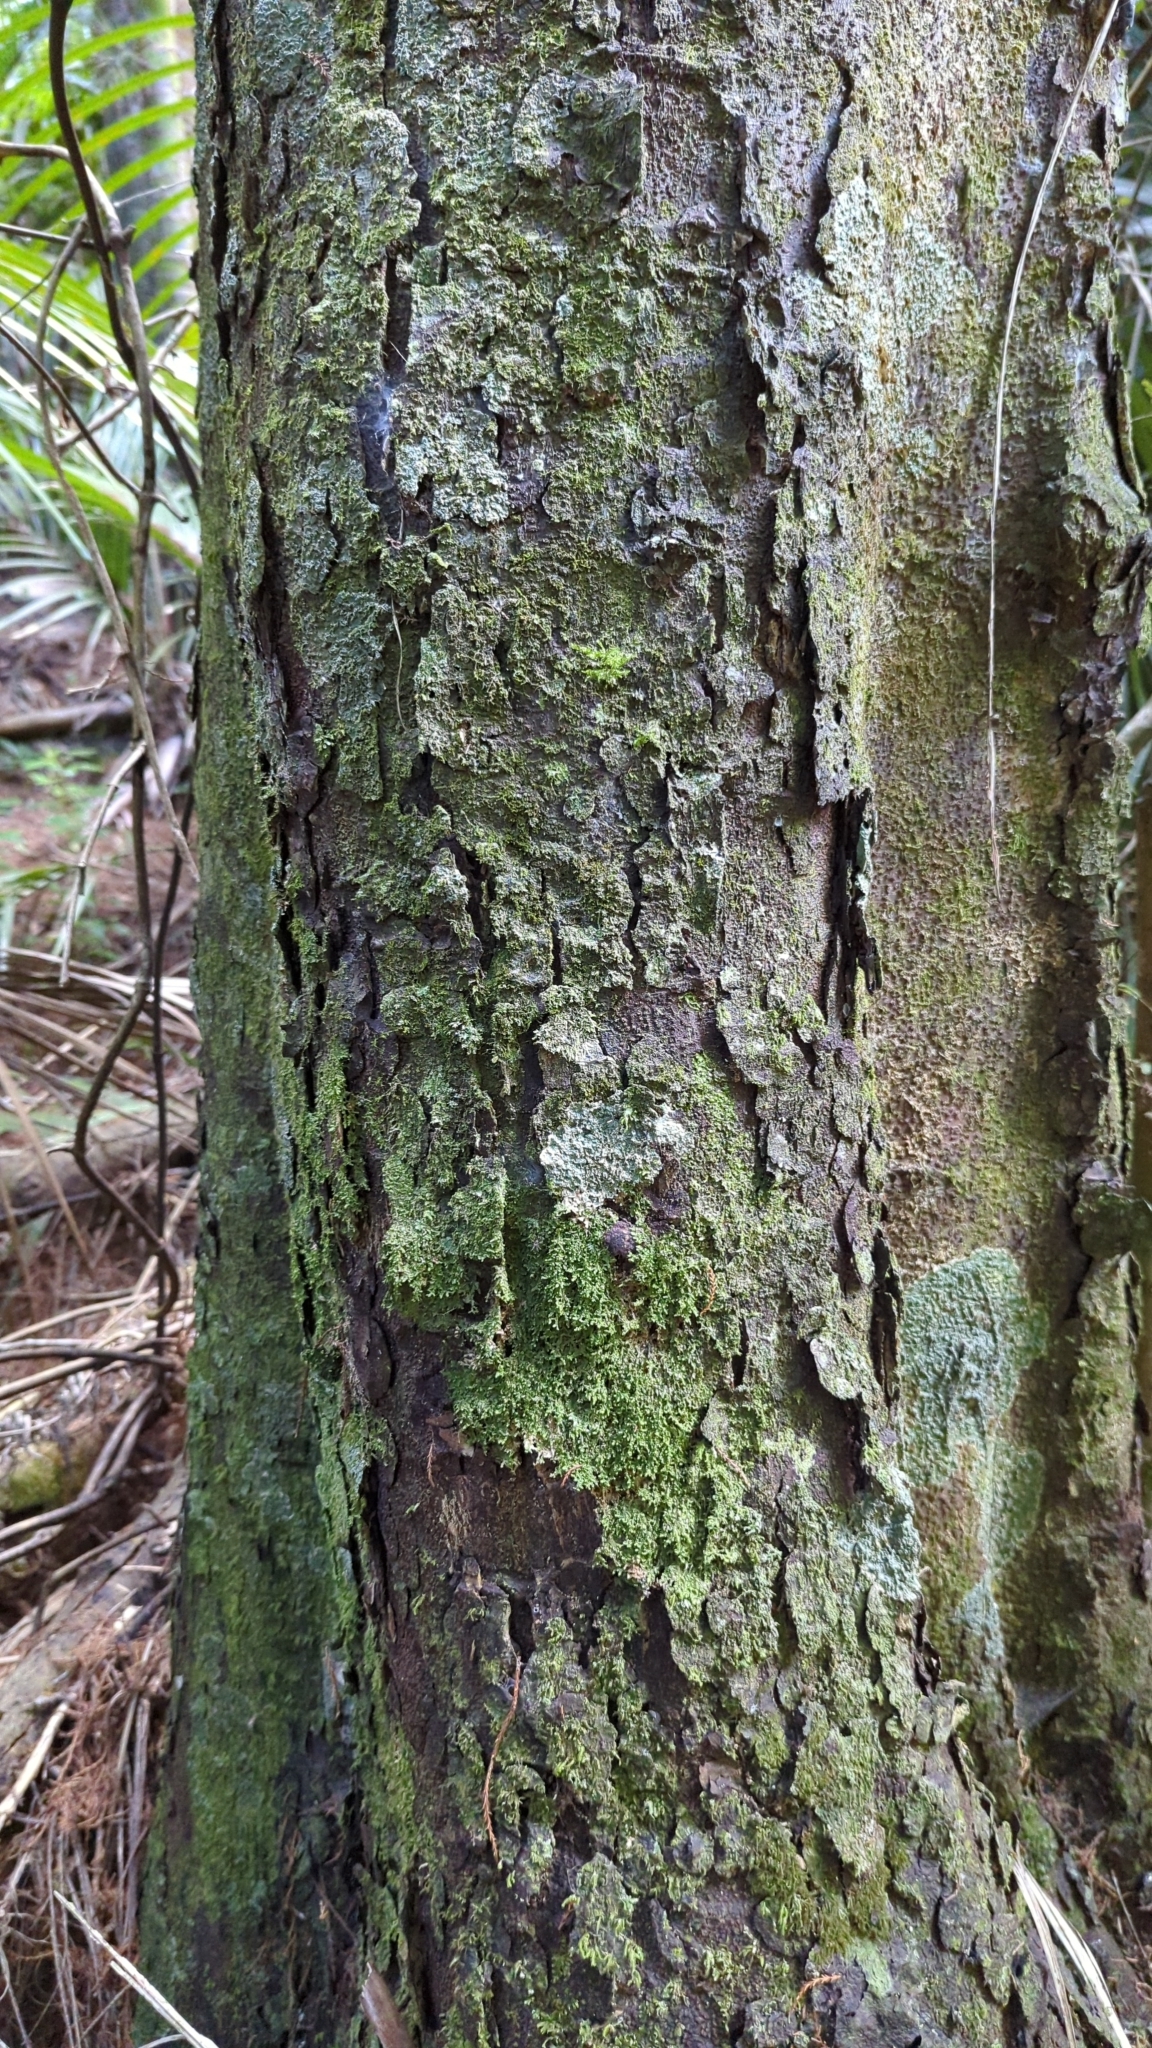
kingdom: Plantae
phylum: Tracheophyta
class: Pinopsida
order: Pinales
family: Podocarpaceae
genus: Dacrydium
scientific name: Dacrydium cupressinum
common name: Red pine
